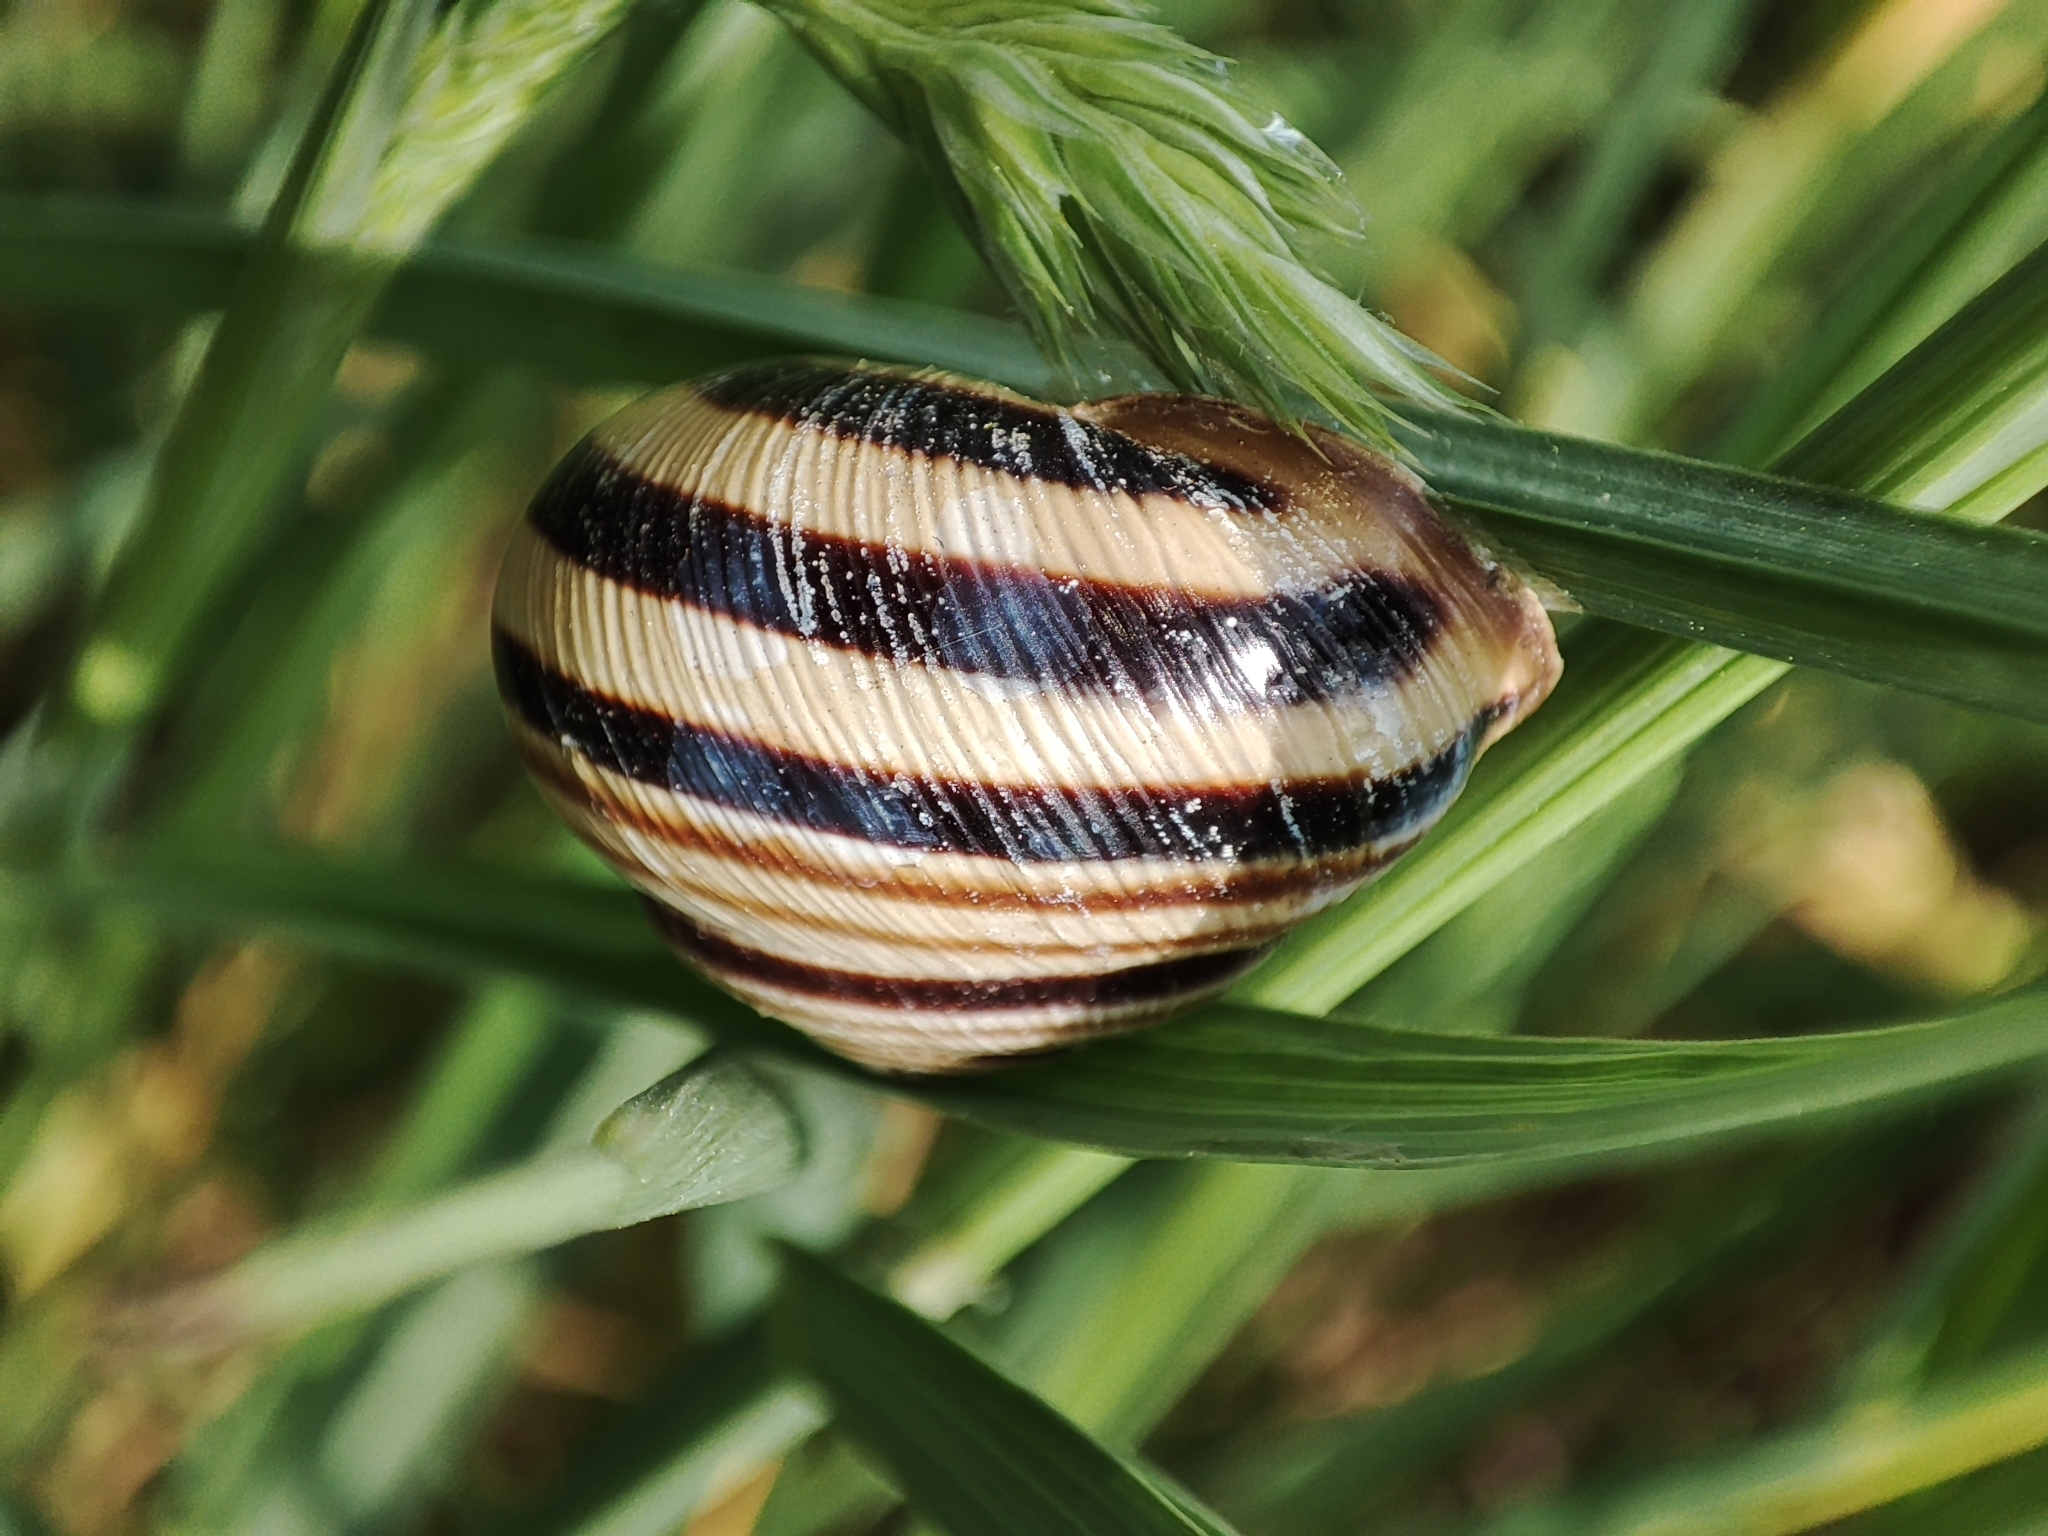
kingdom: Animalia
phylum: Mollusca
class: Gastropoda
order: Stylommatophora
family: Helicidae
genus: Caucasotachea
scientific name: Caucasotachea vindobonensis
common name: European helicid land snail
